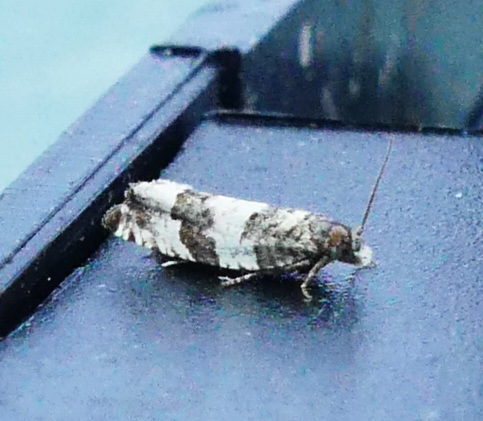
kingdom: Animalia
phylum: Arthropoda
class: Insecta
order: Lepidoptera
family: Tortricidae
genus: Gypsonoma
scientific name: Gypsonoma fasciolana
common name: Willow-and-poplar leafroller
